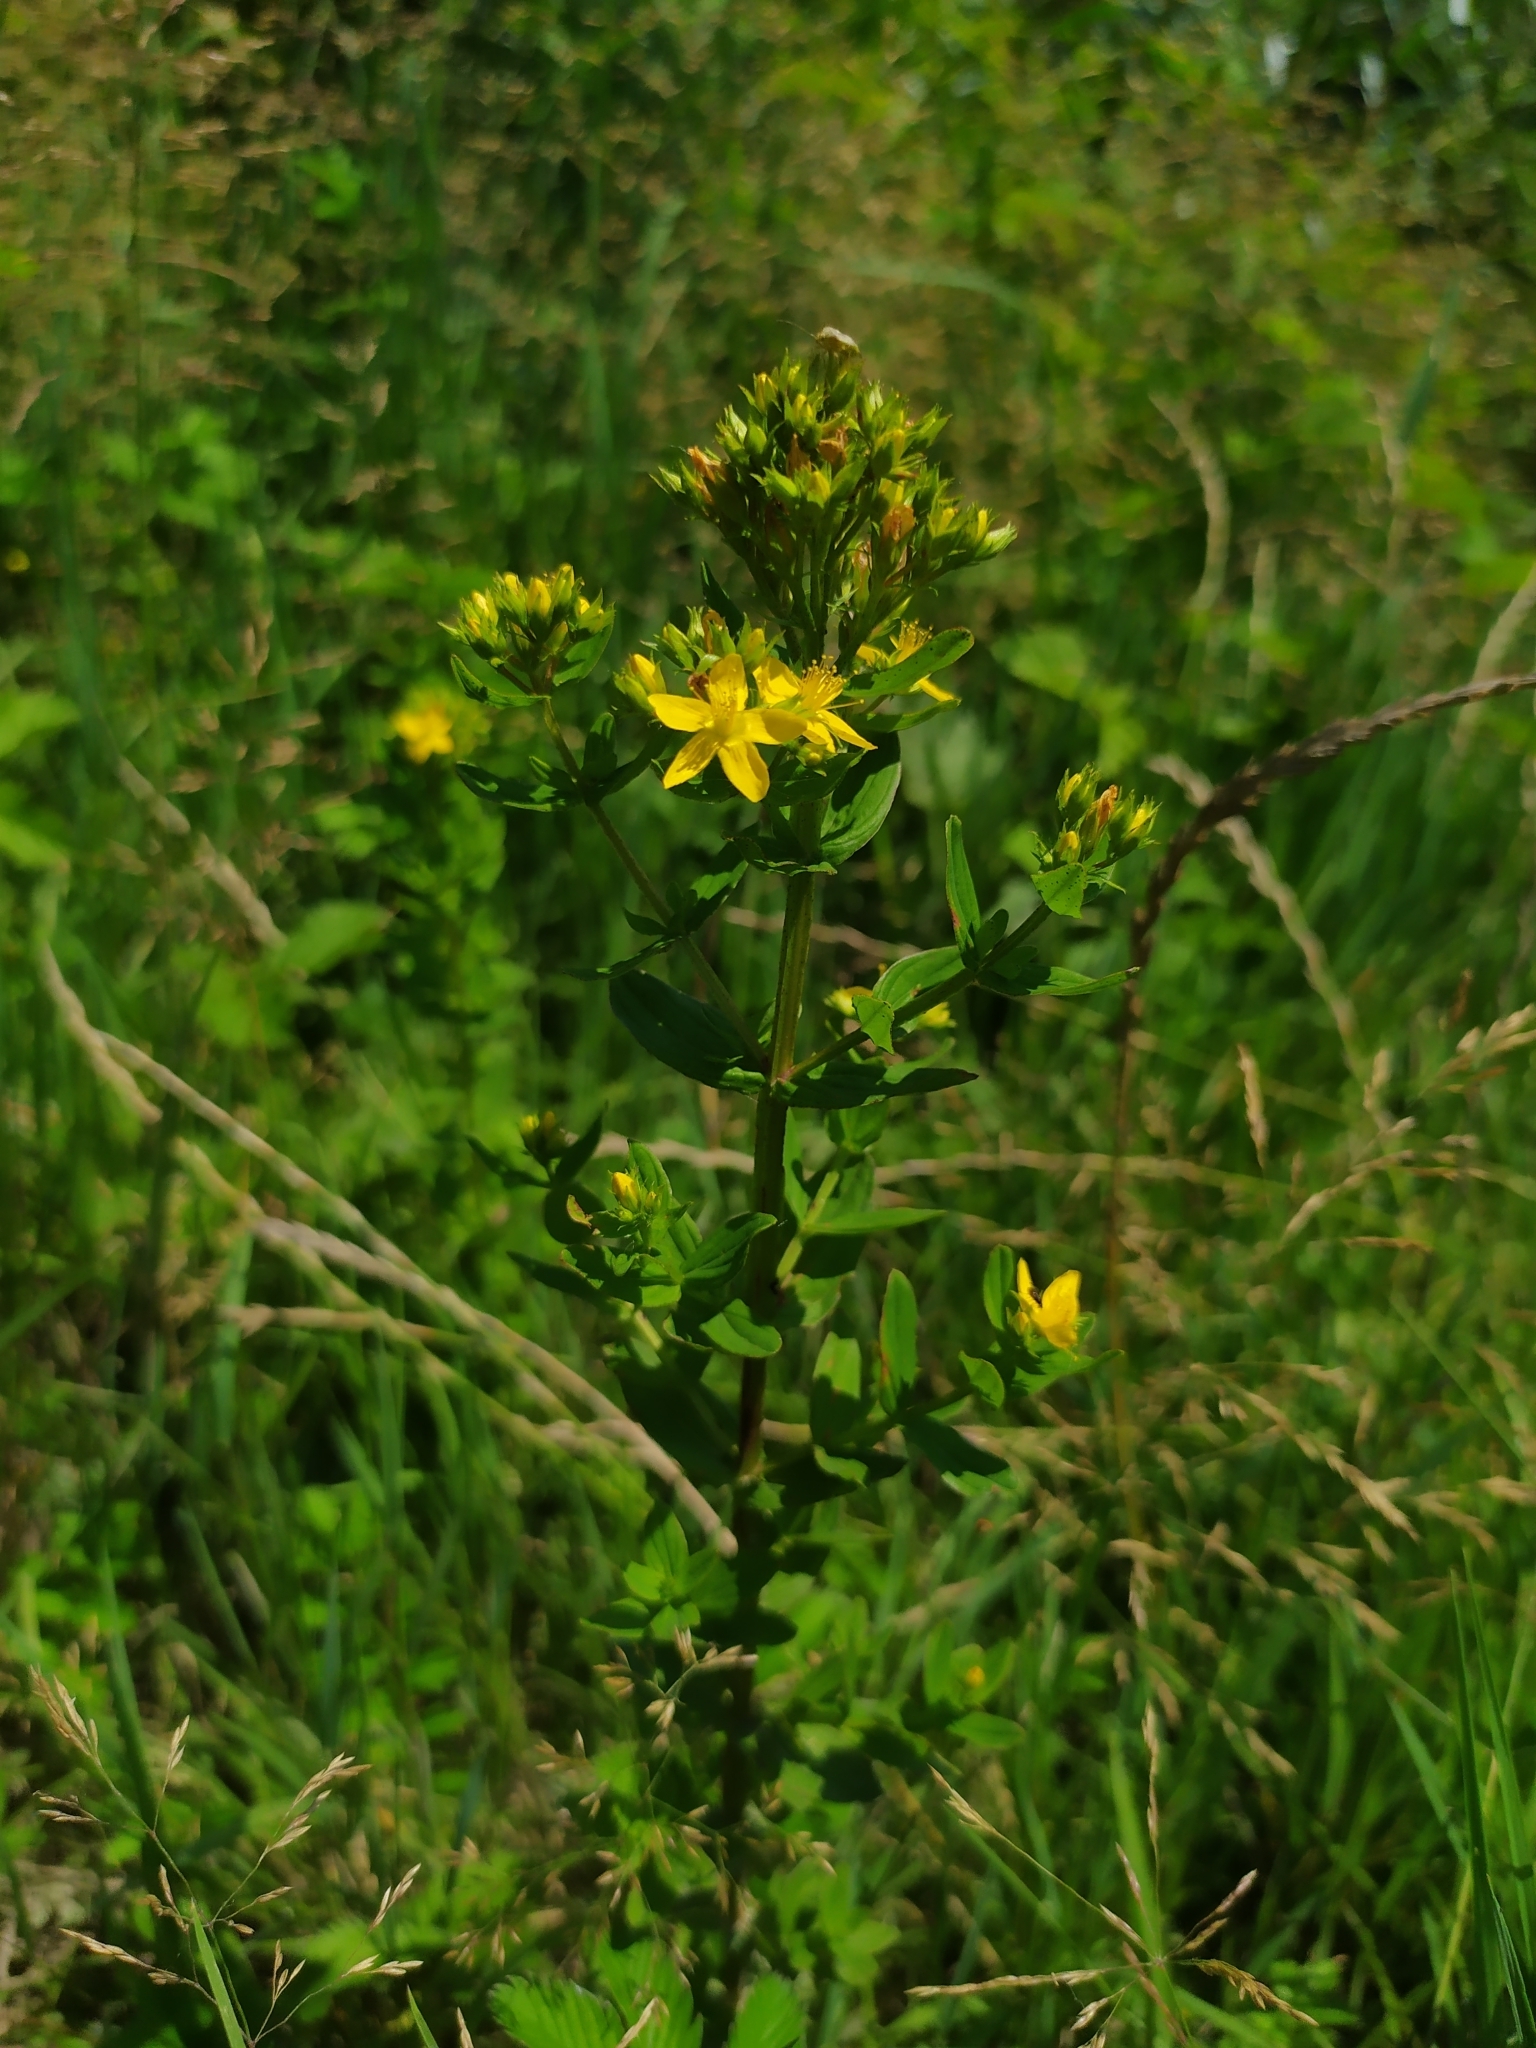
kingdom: Plantae
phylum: Tracheophyta
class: Magnoliopsida
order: Malpighiales
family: Hypericaceae
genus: Hypericum
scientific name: Hypericum tetrapterum
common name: Square-stalked st. john's-wort
